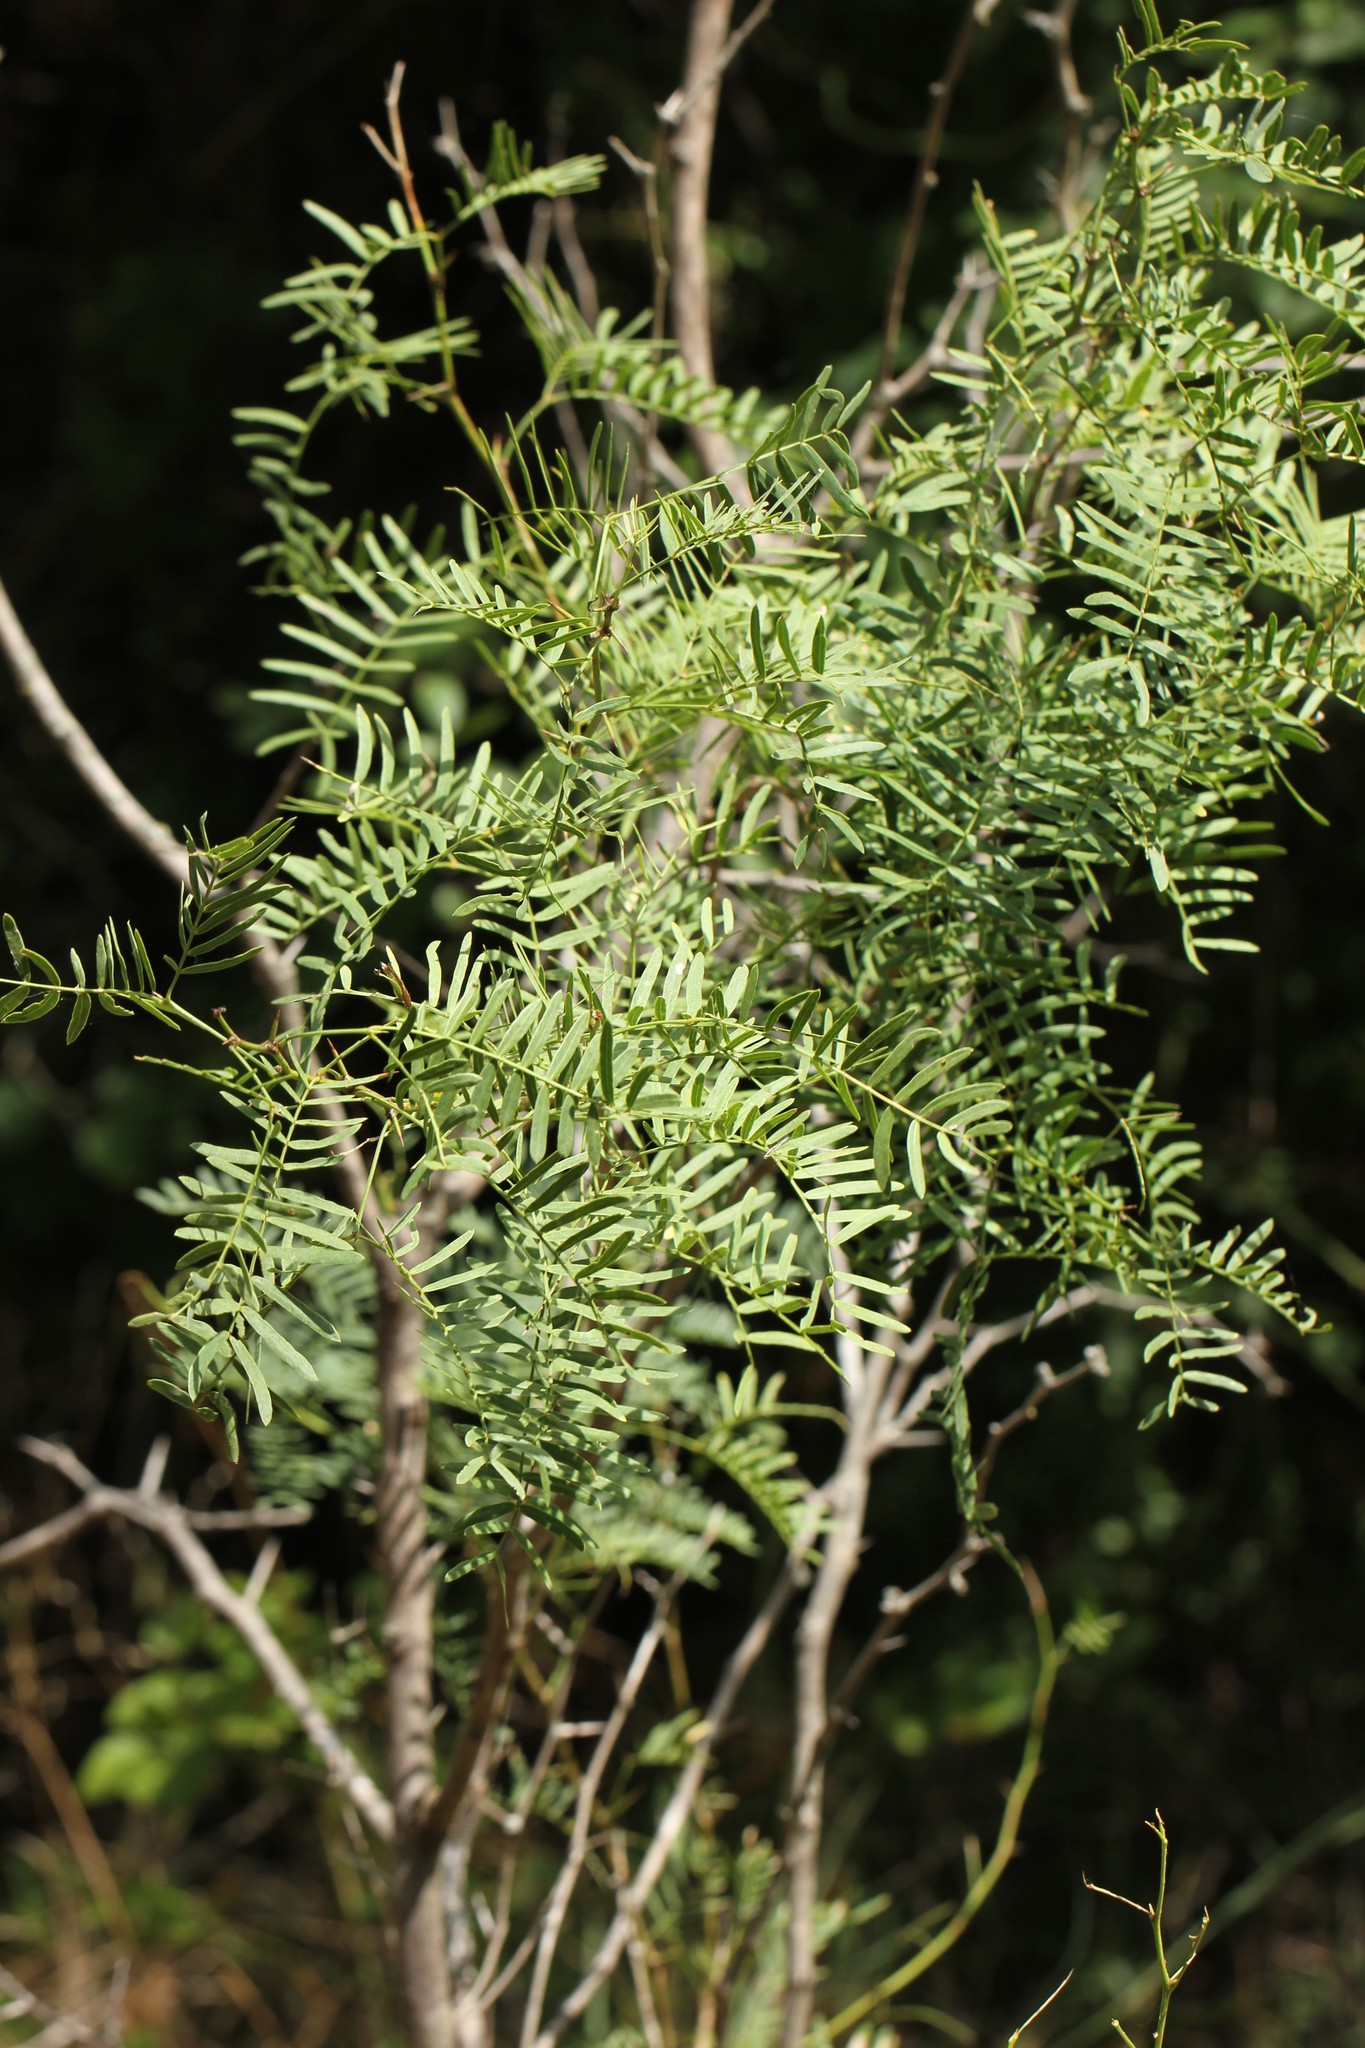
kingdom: Plantae
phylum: Tracheophyta
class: Magnoliopsida
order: Fabales
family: Fabaceae
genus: Prosopis
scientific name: Prosopis glandulosa
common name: Honey mesquite
